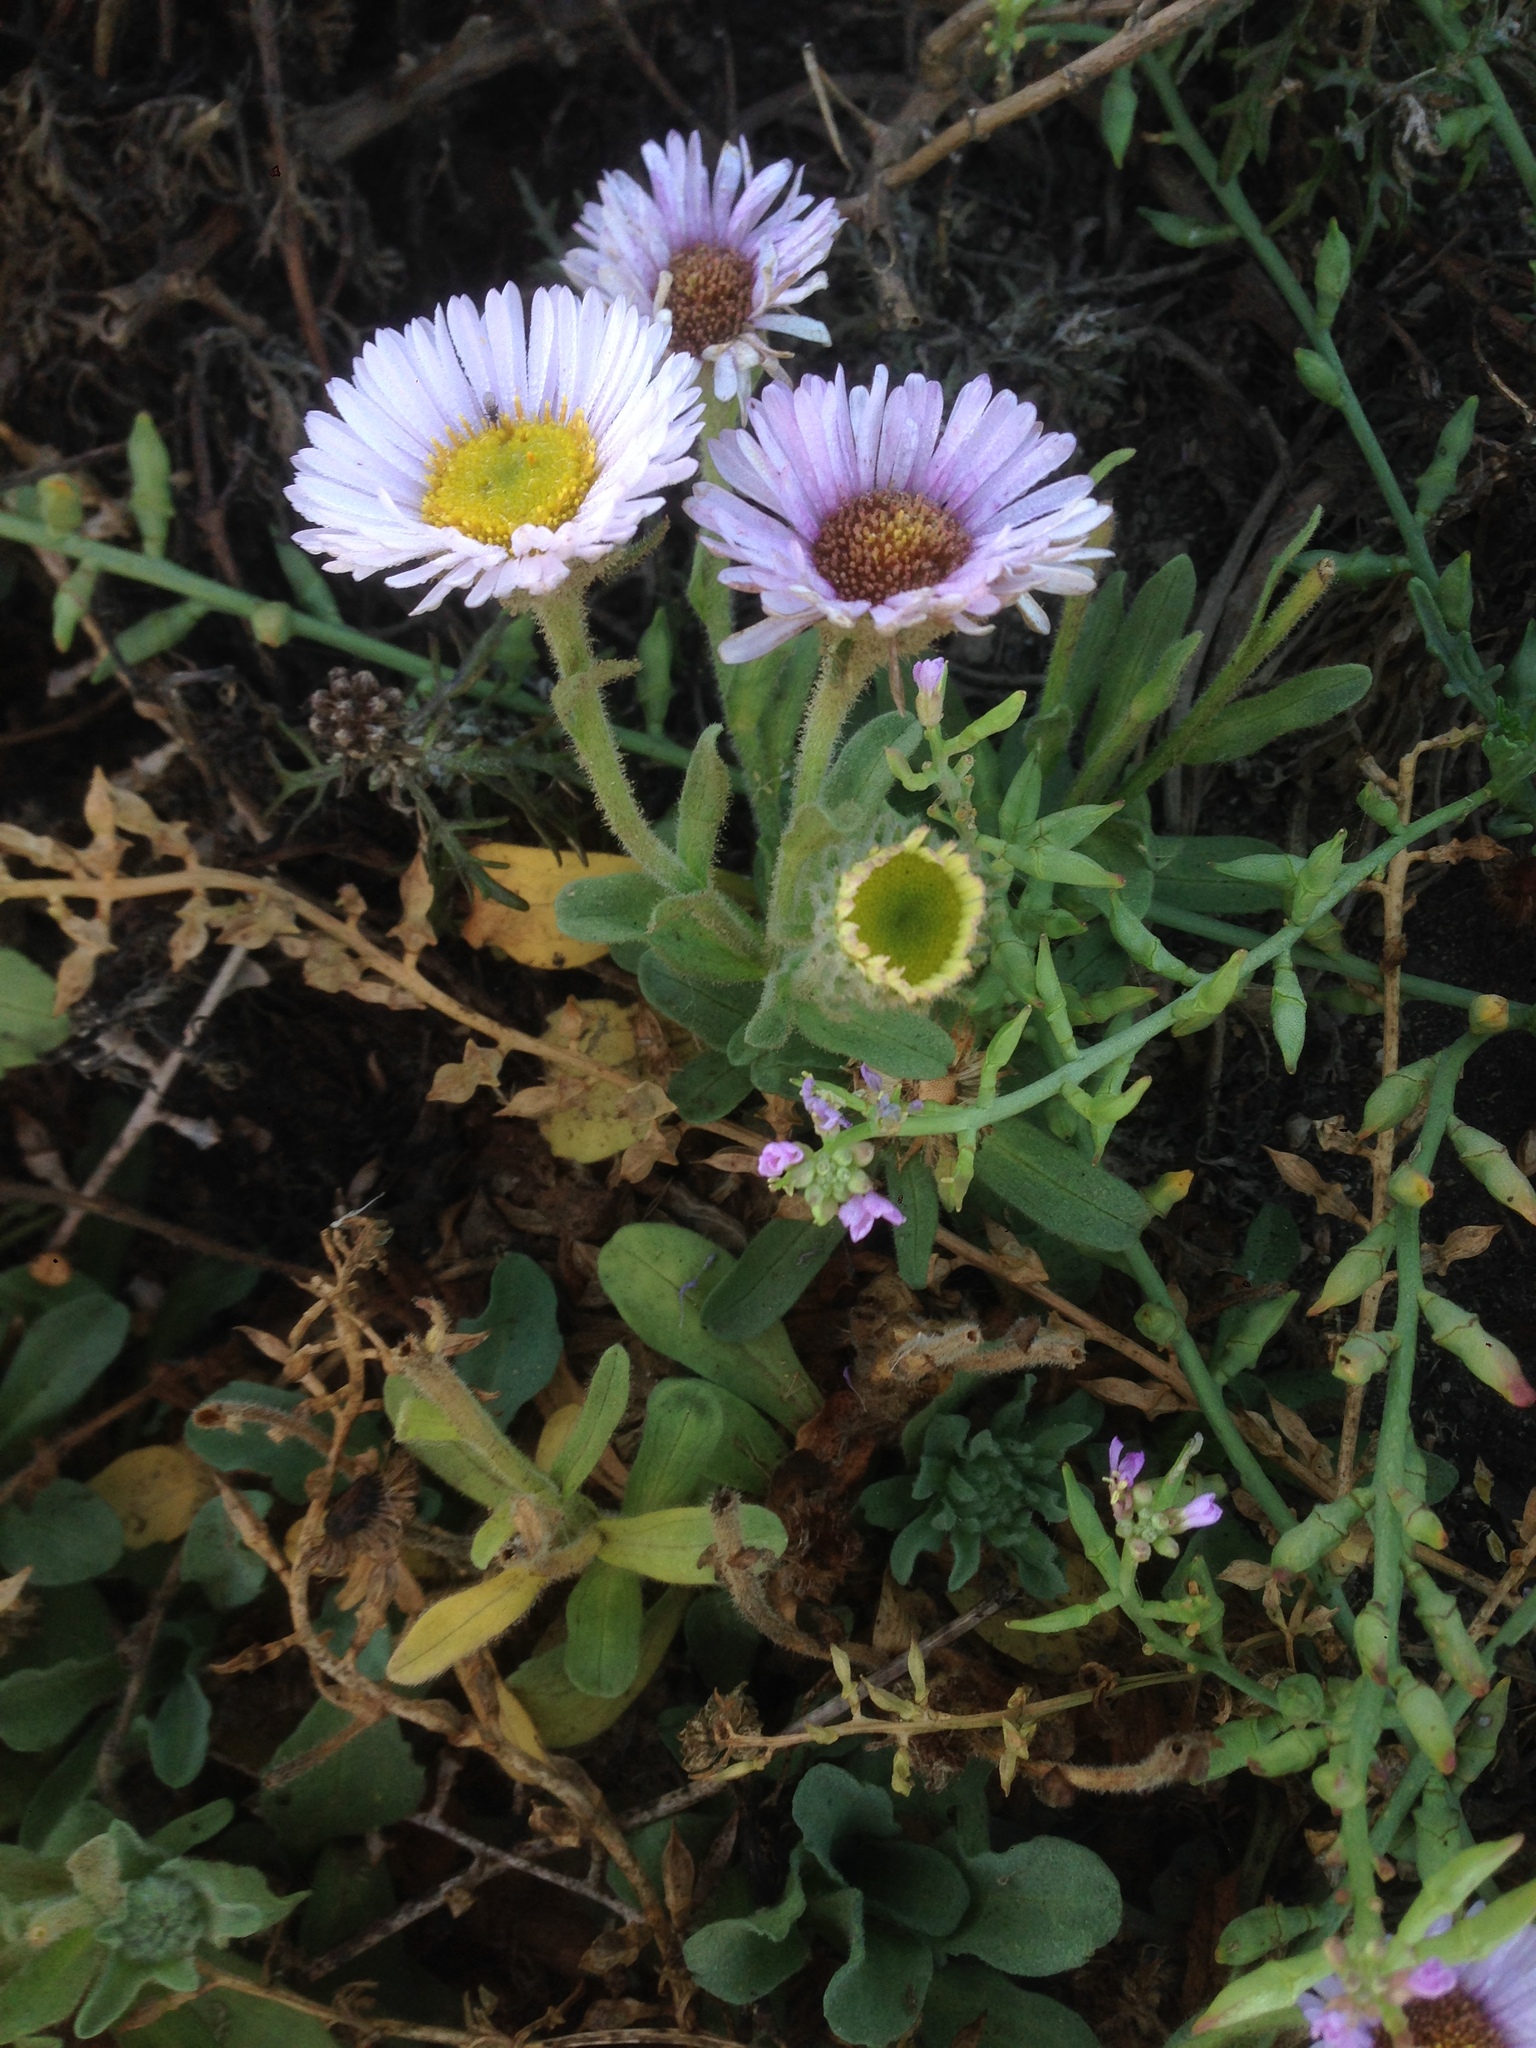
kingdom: Plantae
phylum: Tracheophyta
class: Magnoliopsida
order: Asterales
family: Asteraceae
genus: Erigeron
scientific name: Erigeron glaucus
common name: Seaside daisy
